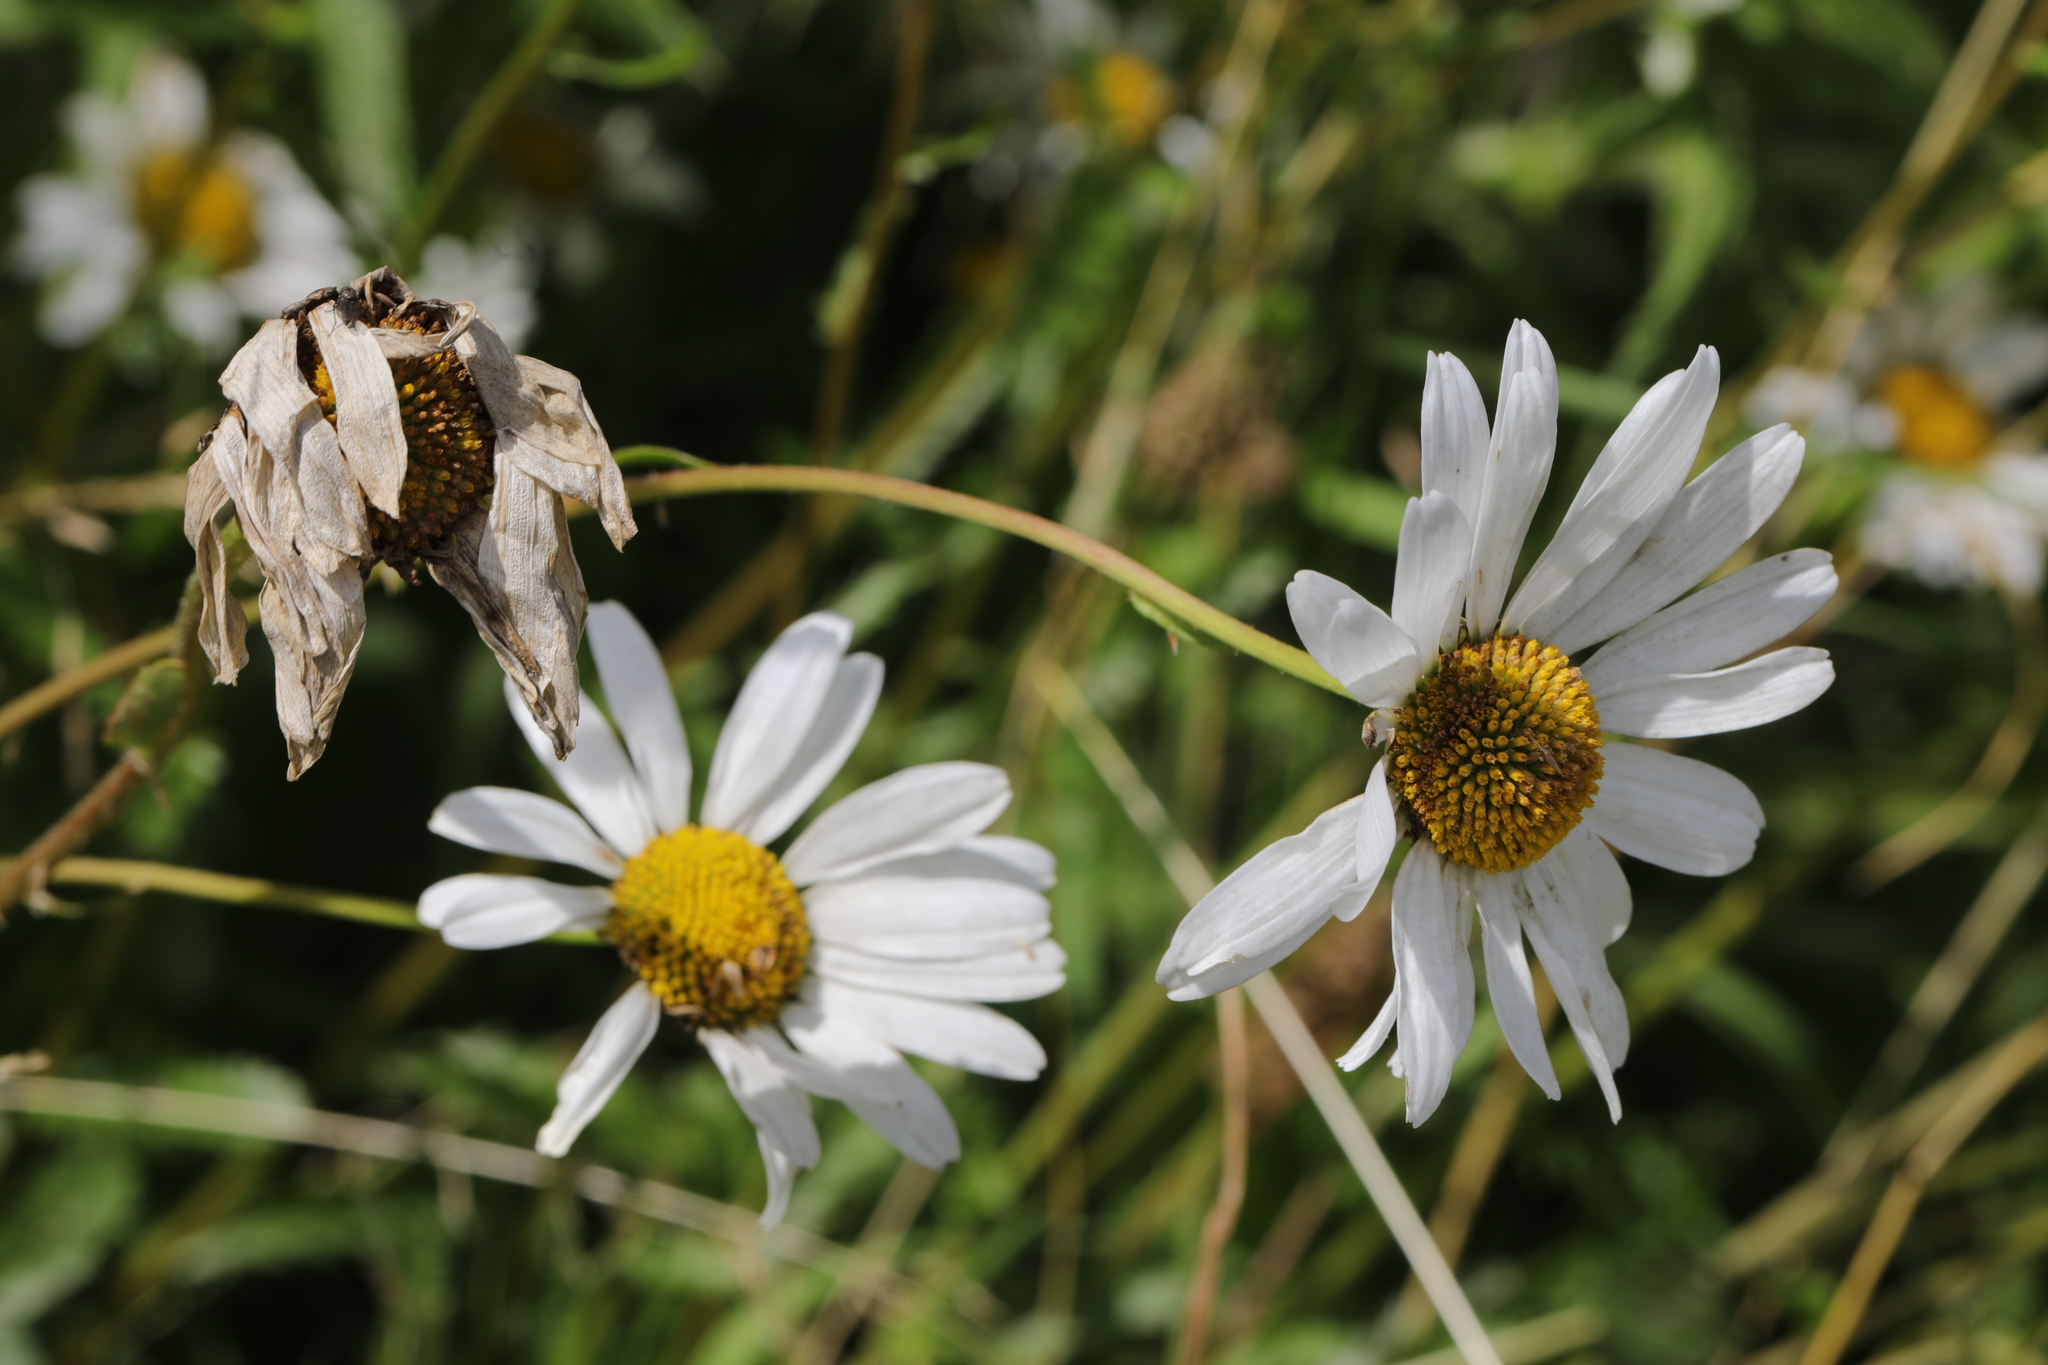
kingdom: Plantae
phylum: Tracheophyta
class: Magnoliopsida
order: Asterales
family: Asteraceae
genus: Leucanthemum
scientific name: Leucanthemum vulgare
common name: Oxeye daisy
